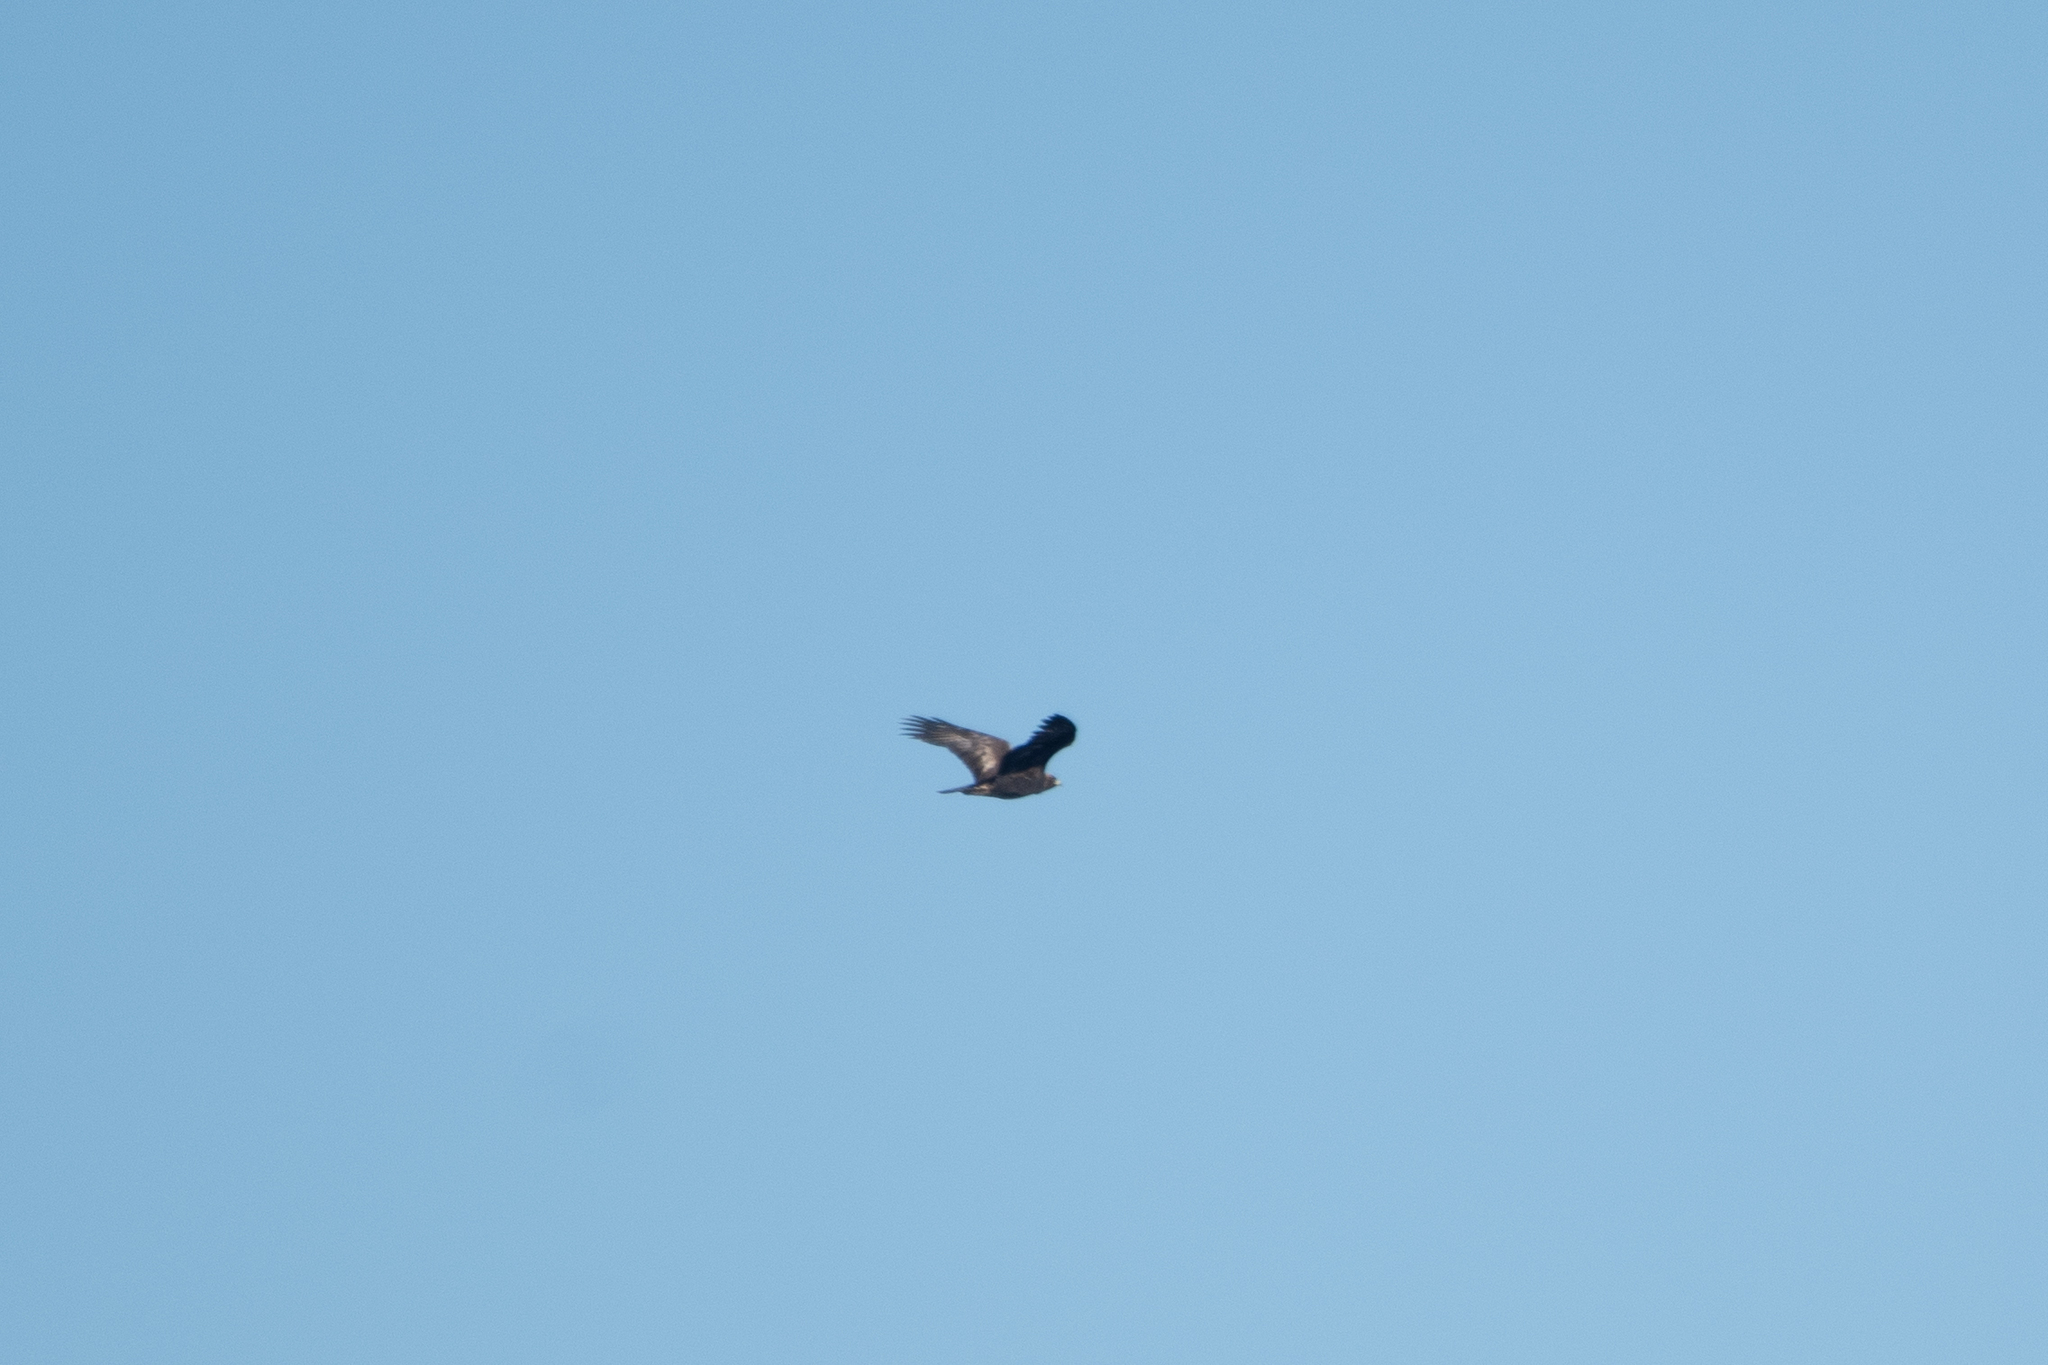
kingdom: Animalia
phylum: Chordata
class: Aves
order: Accipitriformes
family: Accipitridae
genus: Aquila
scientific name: Aquila chrysaetos
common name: Golden eagle
